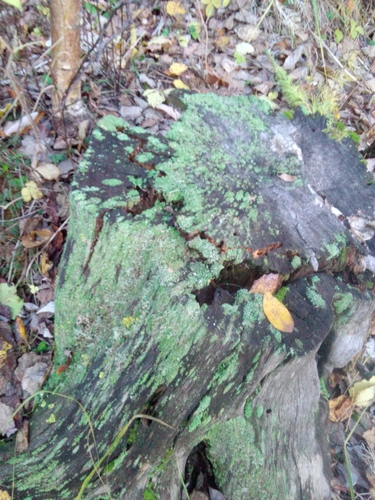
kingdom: Fungi
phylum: Ascomycota
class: Lecanoromycetes
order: Lecanorales
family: Cladoniaceae
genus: Cladonia
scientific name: Cladonia
